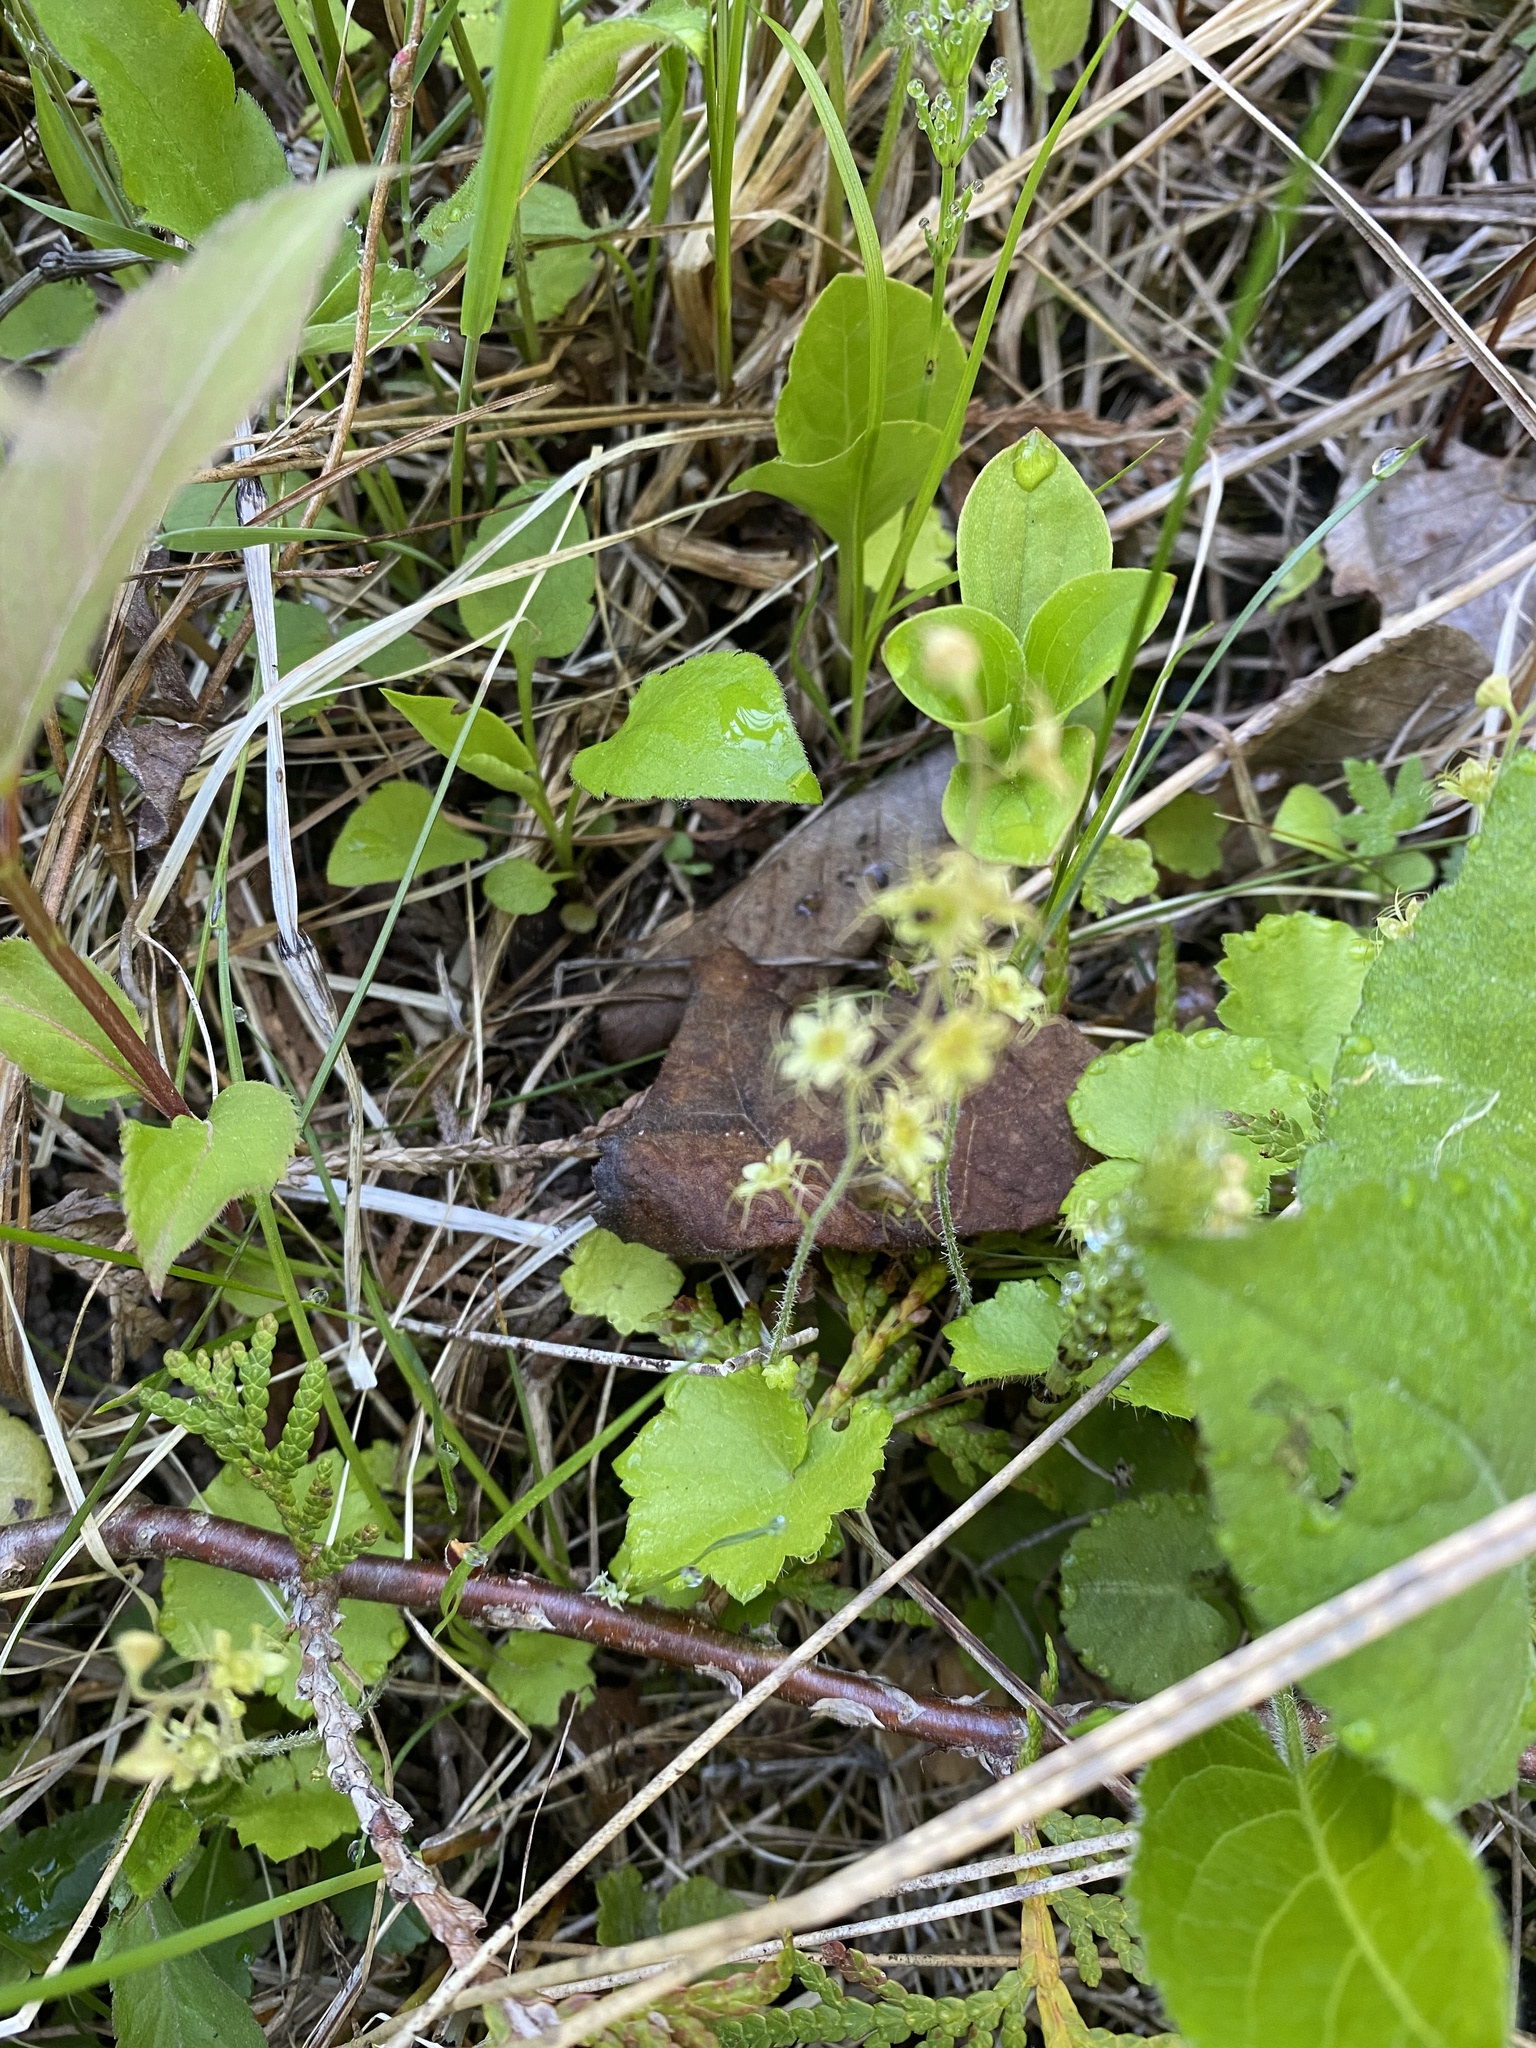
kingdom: Plantae
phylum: Tracheophyta
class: Magnoliopsida
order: Saxifragales
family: Saxifragaceae
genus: Mitella
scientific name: Mitella nuda
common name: Bare-stemmed bishop's-cap
